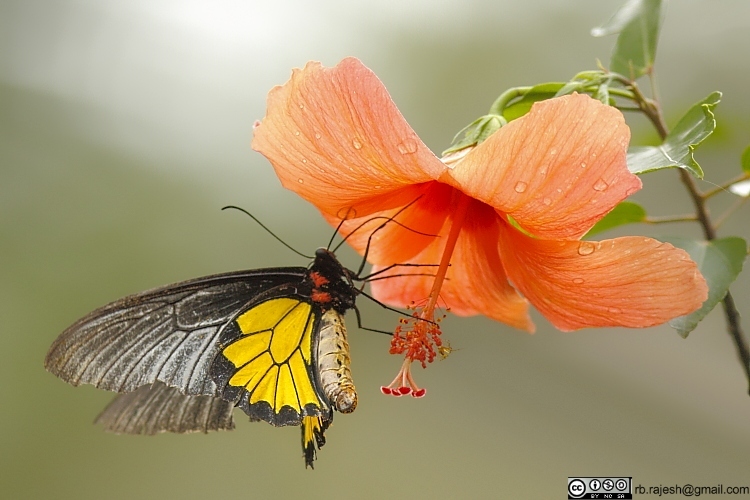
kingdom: Animalia
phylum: Arthropoda
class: Insecta
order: Lepidoptera
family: Papilionidae
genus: Troides
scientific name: Troides minos
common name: Malabar birdwing
